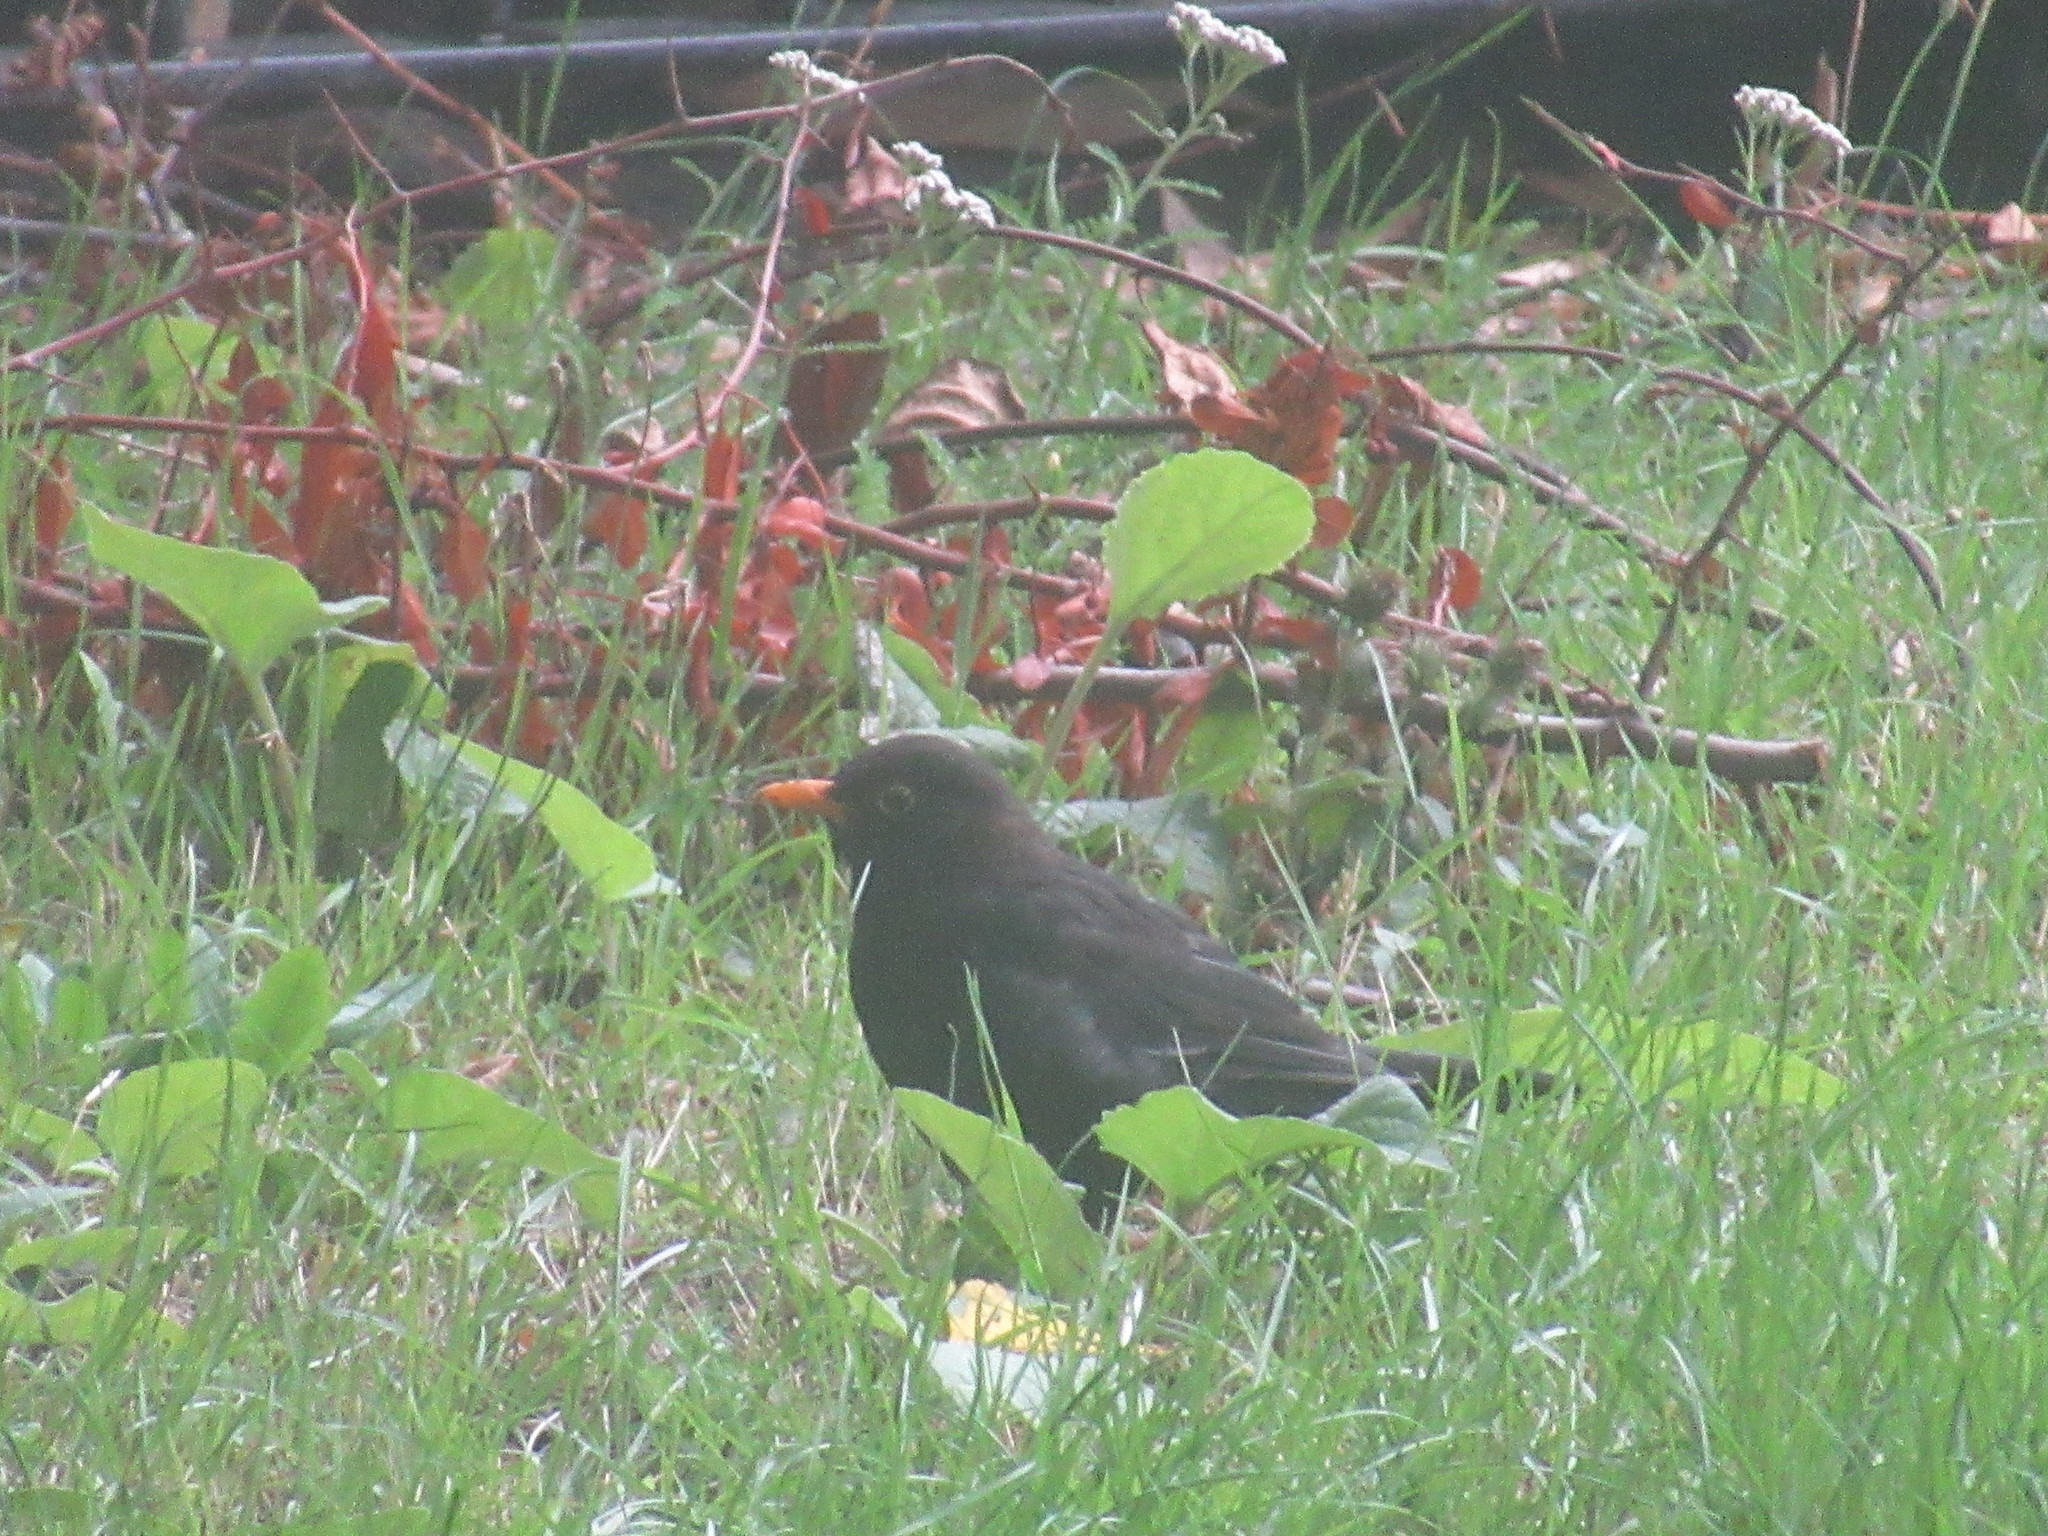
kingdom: Animalia
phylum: Chordata
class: Aves
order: Passeriformes
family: Turdidae
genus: Turdus
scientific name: Turdus merula
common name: Common blackbird
